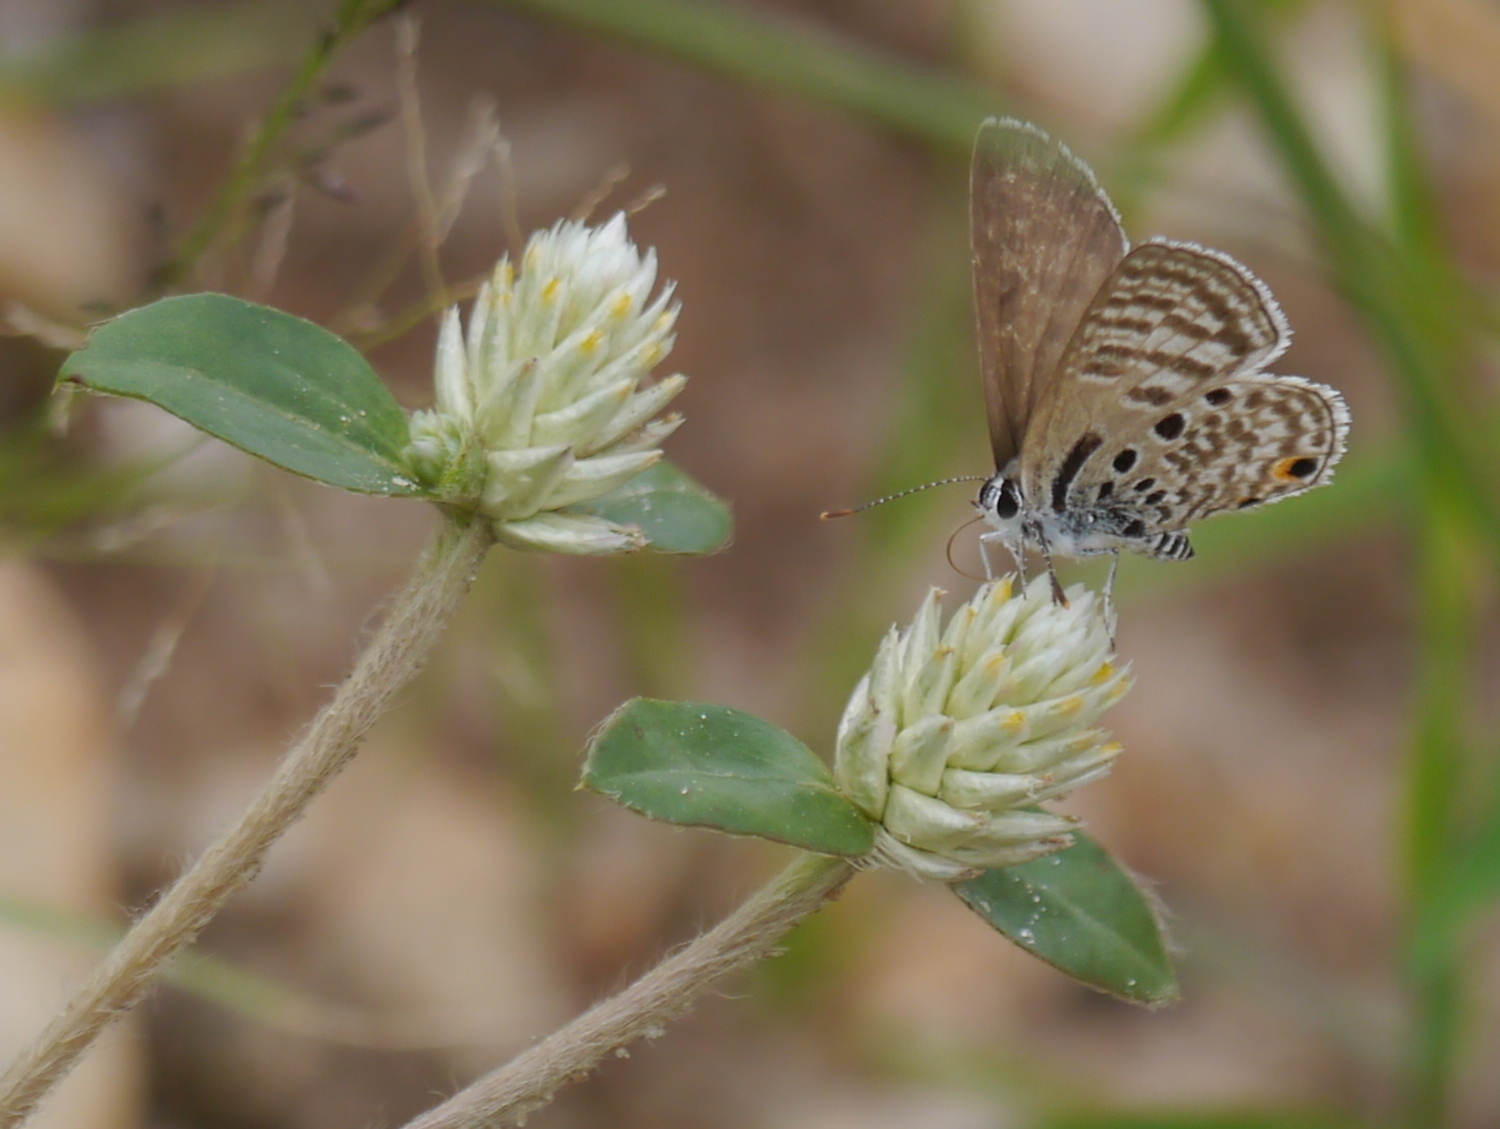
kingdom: Animalia
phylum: Arthropoda
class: Insecta
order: Lepidoptera
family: Lycaenidae
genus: Anthene
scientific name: Anthene amarah
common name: Black-striped hairtail
